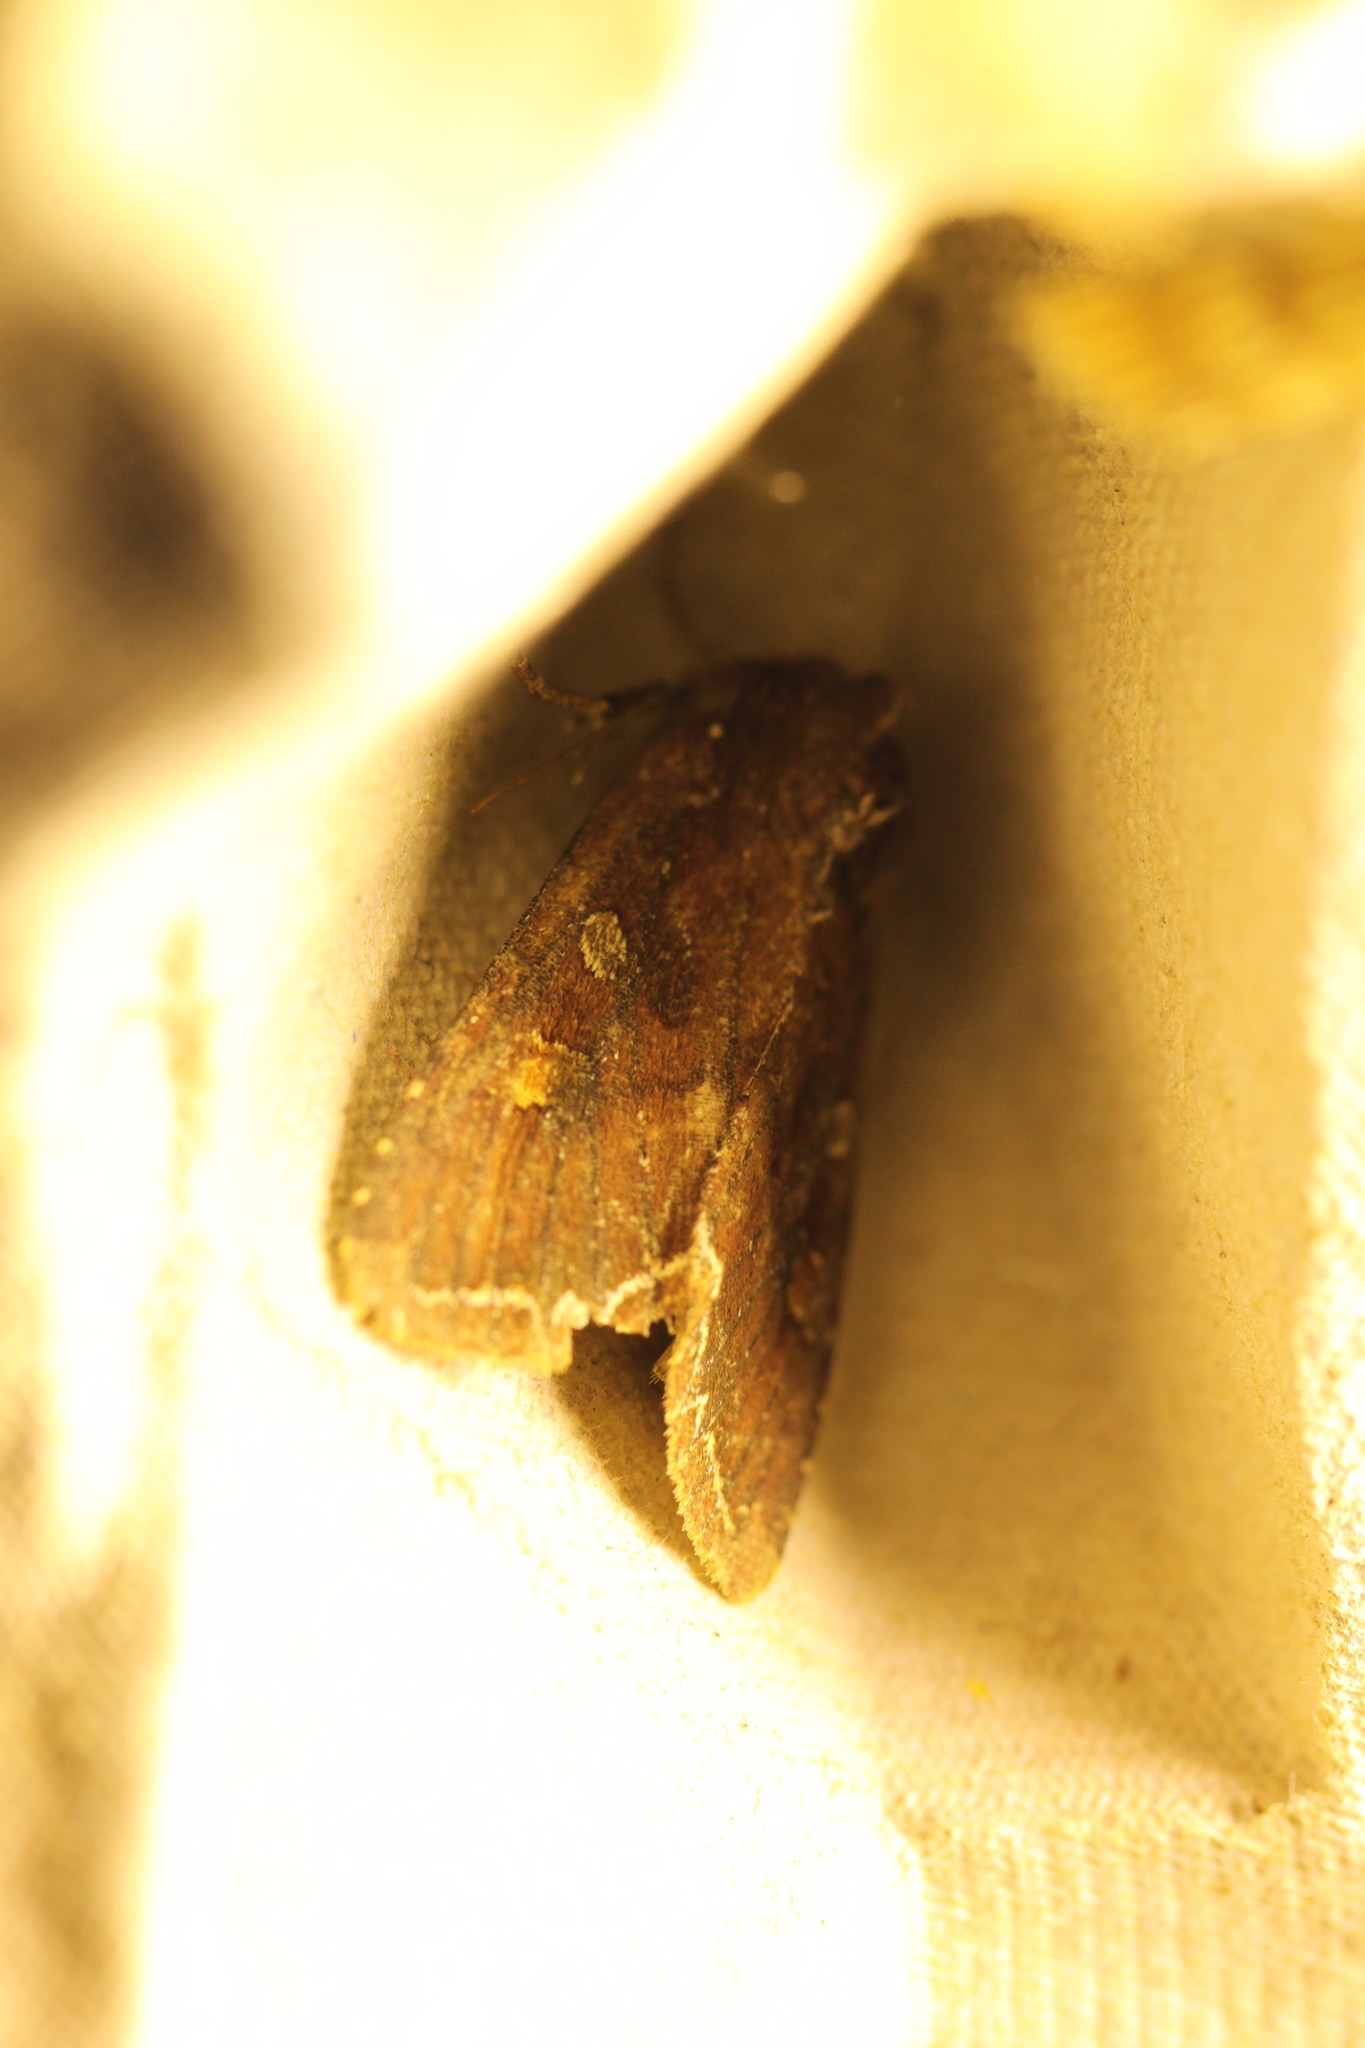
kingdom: Animalia
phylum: Arthropoda
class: Insecta
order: Lepidoptera
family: Noctuidae
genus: Lacanobia
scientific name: Lacanobia oleracea
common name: Bright-line brown-eye
